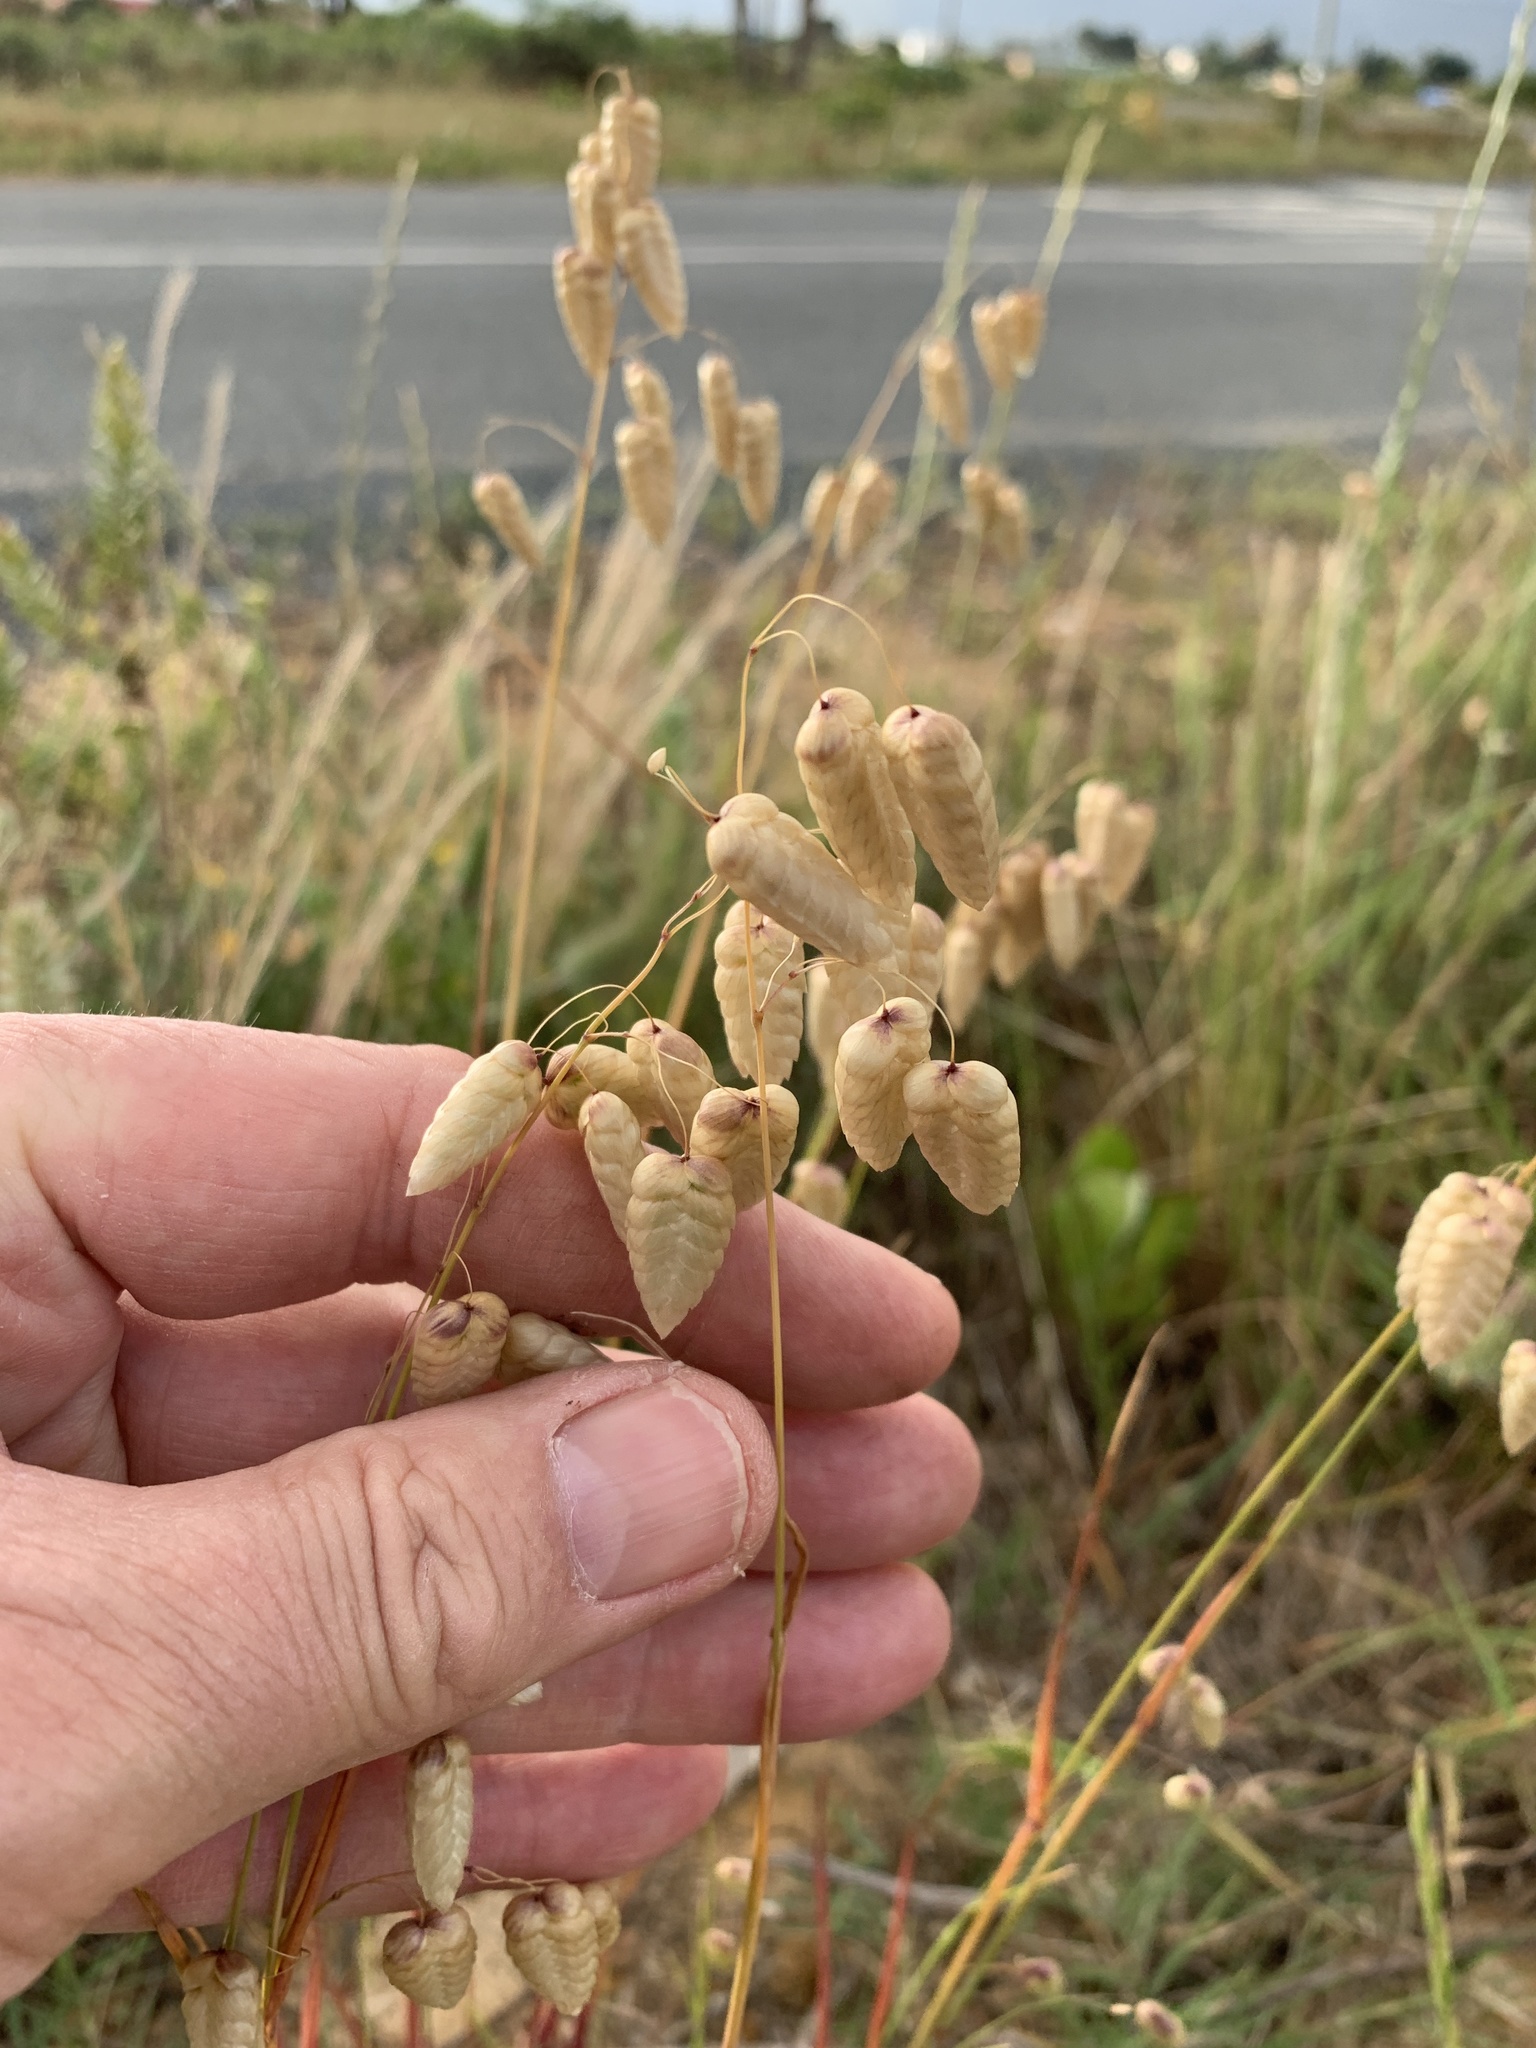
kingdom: Plantae
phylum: Tracheophyta
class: Liliopsida
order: Poales
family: Poaceae
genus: Briza
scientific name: Briza maxima
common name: Big quakinggrass
